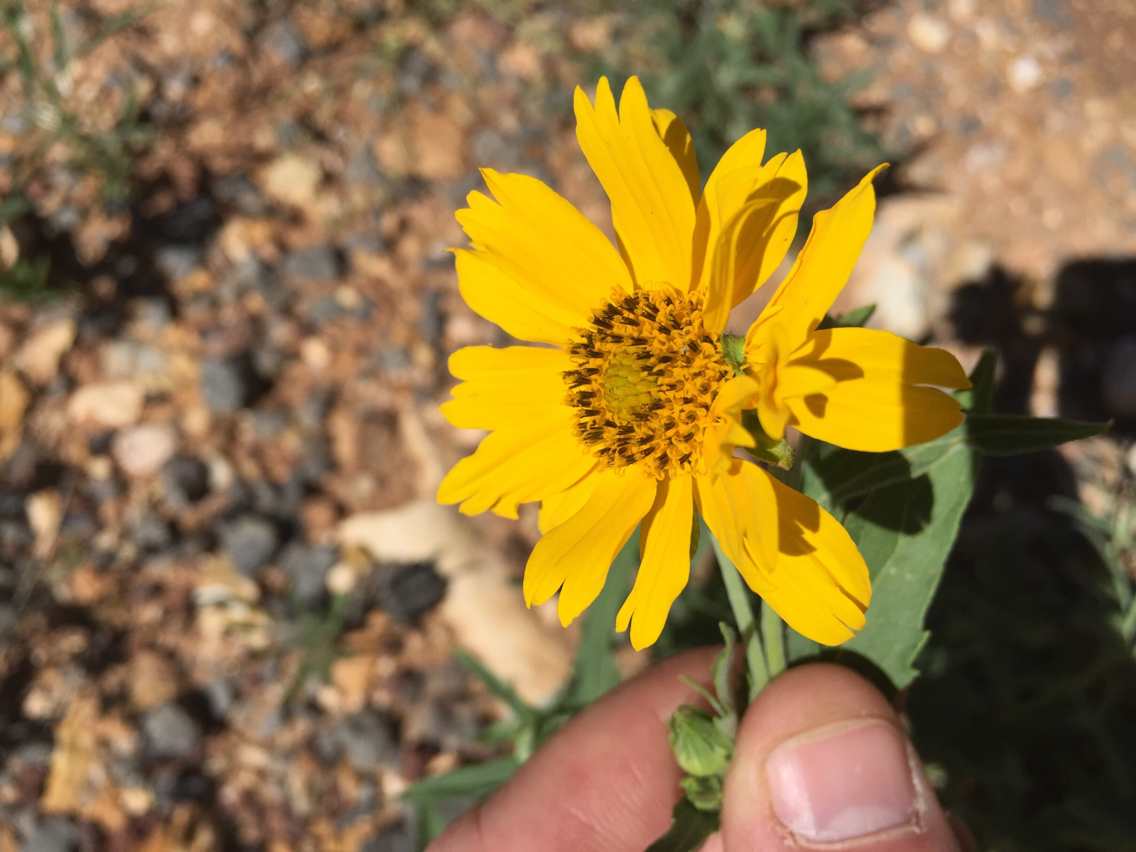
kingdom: Plantae
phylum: Tracheophyta
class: Magnoliopsida
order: Asterales
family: Asteraceae
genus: Verbesina
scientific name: Verbesina encelioides
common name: Golden crownbeard
